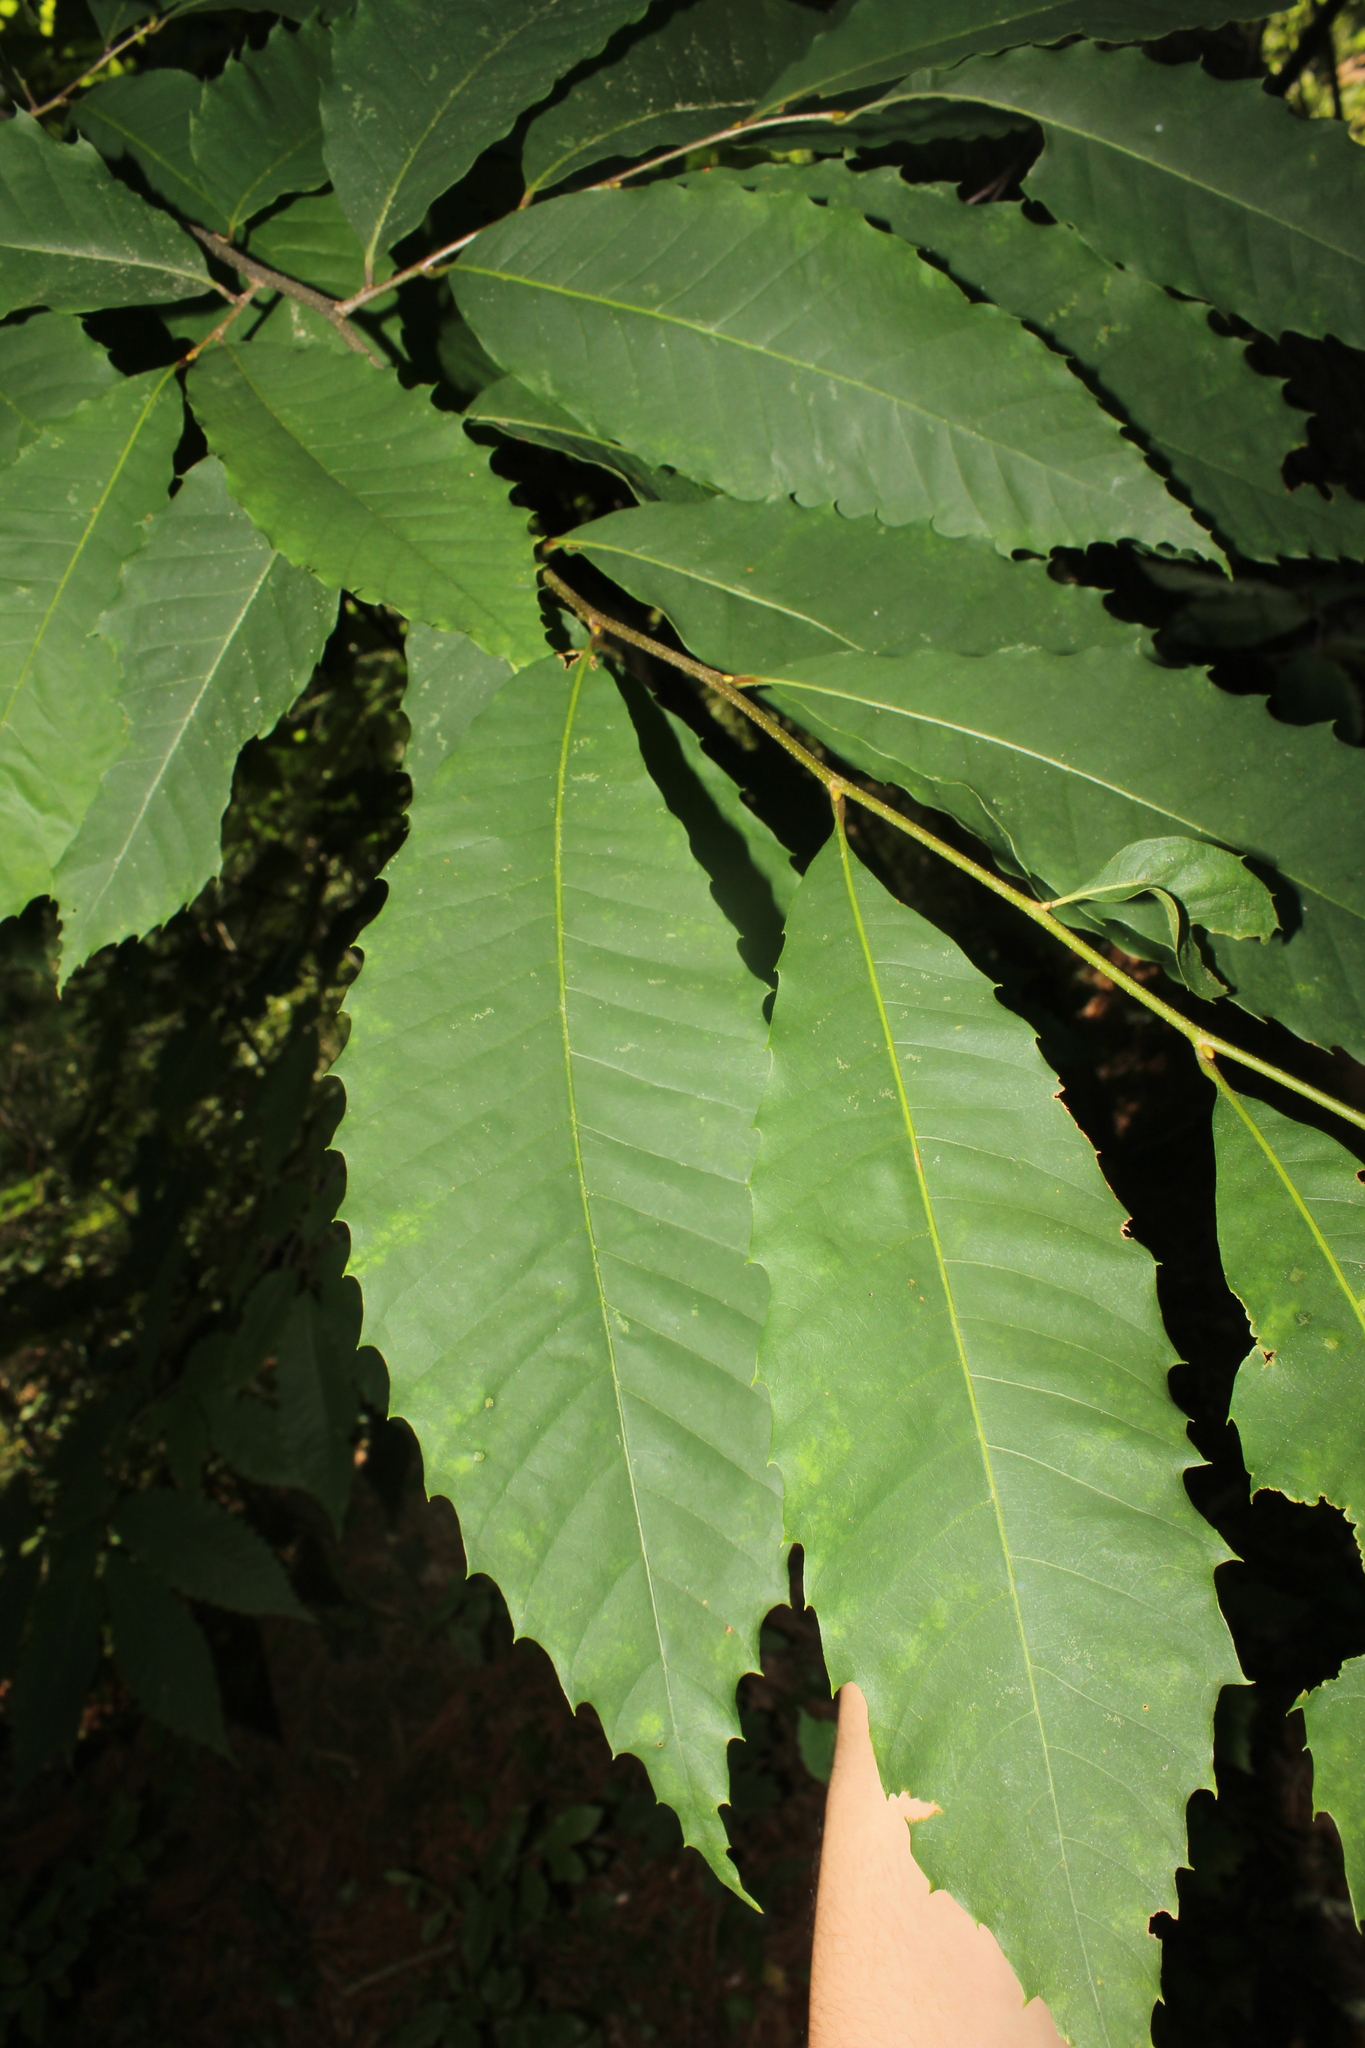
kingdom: Plantae
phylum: Tracheophyta
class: Magnoliopsida
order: Fagales
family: Fagaceae
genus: Castanea
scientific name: Castanea dentata
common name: American chestnut
